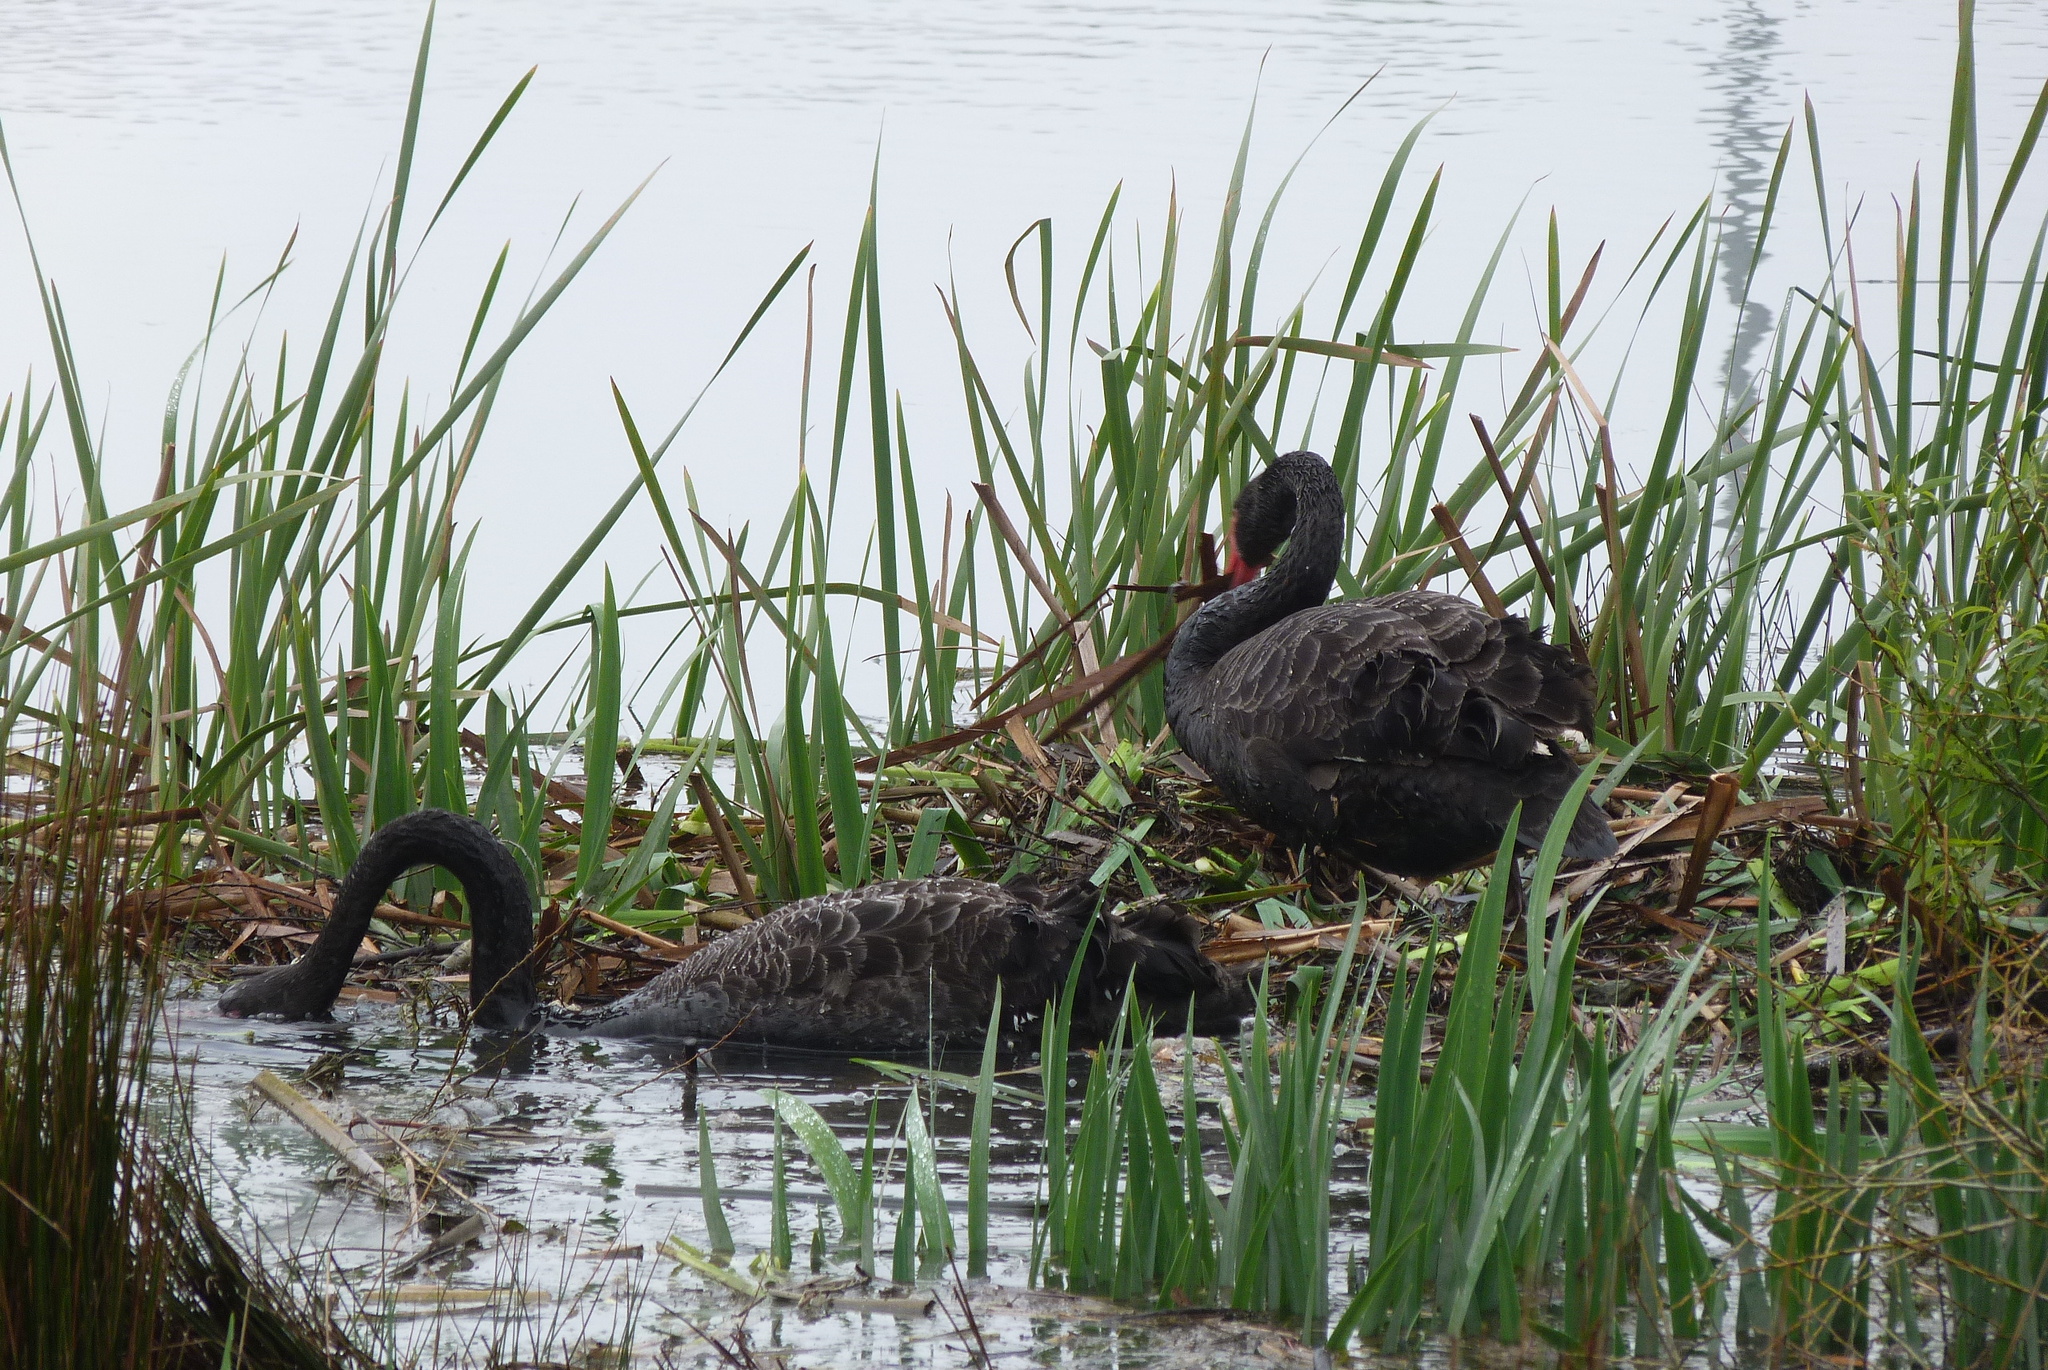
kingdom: Animalia
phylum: Chordata
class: Aves
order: Anseriformes
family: Anatidae
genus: Cygnus
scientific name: Cygnus atratus
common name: Black swan
